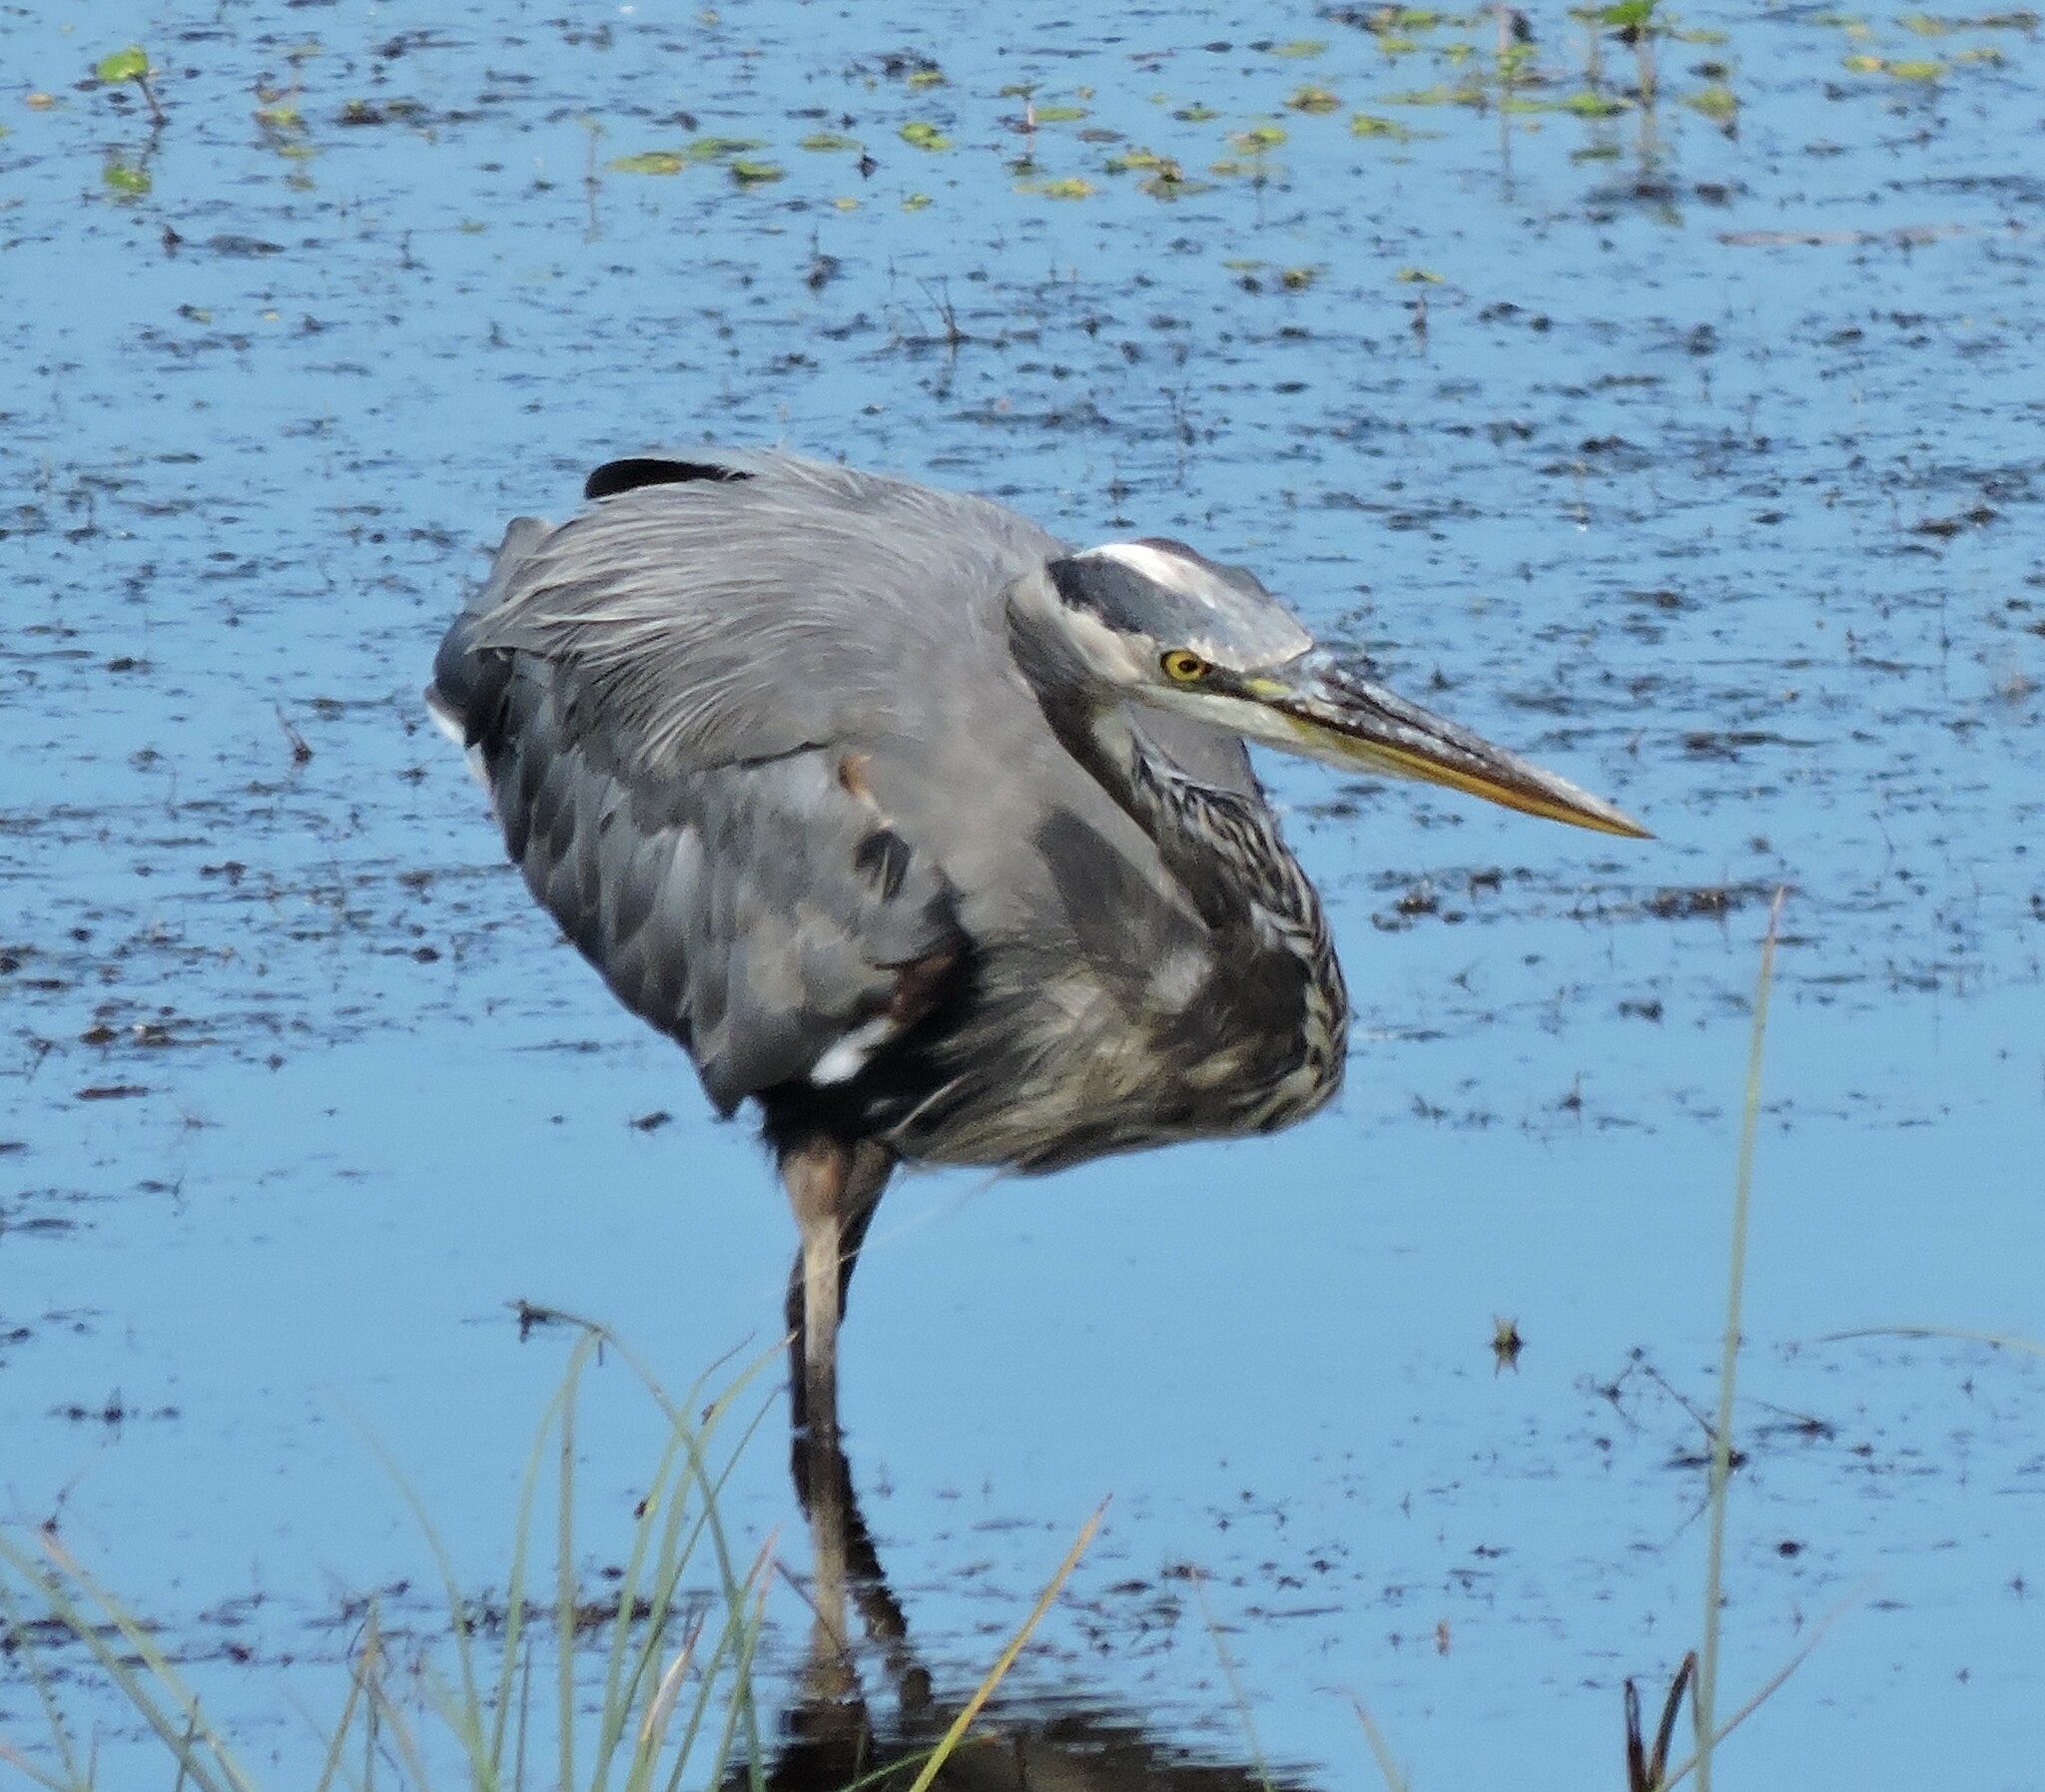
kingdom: Animalia
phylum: Chordata
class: Aves
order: Pelecaniformes
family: Ardeidae
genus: Ardea
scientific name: Ardea herodias
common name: Great blue heron
